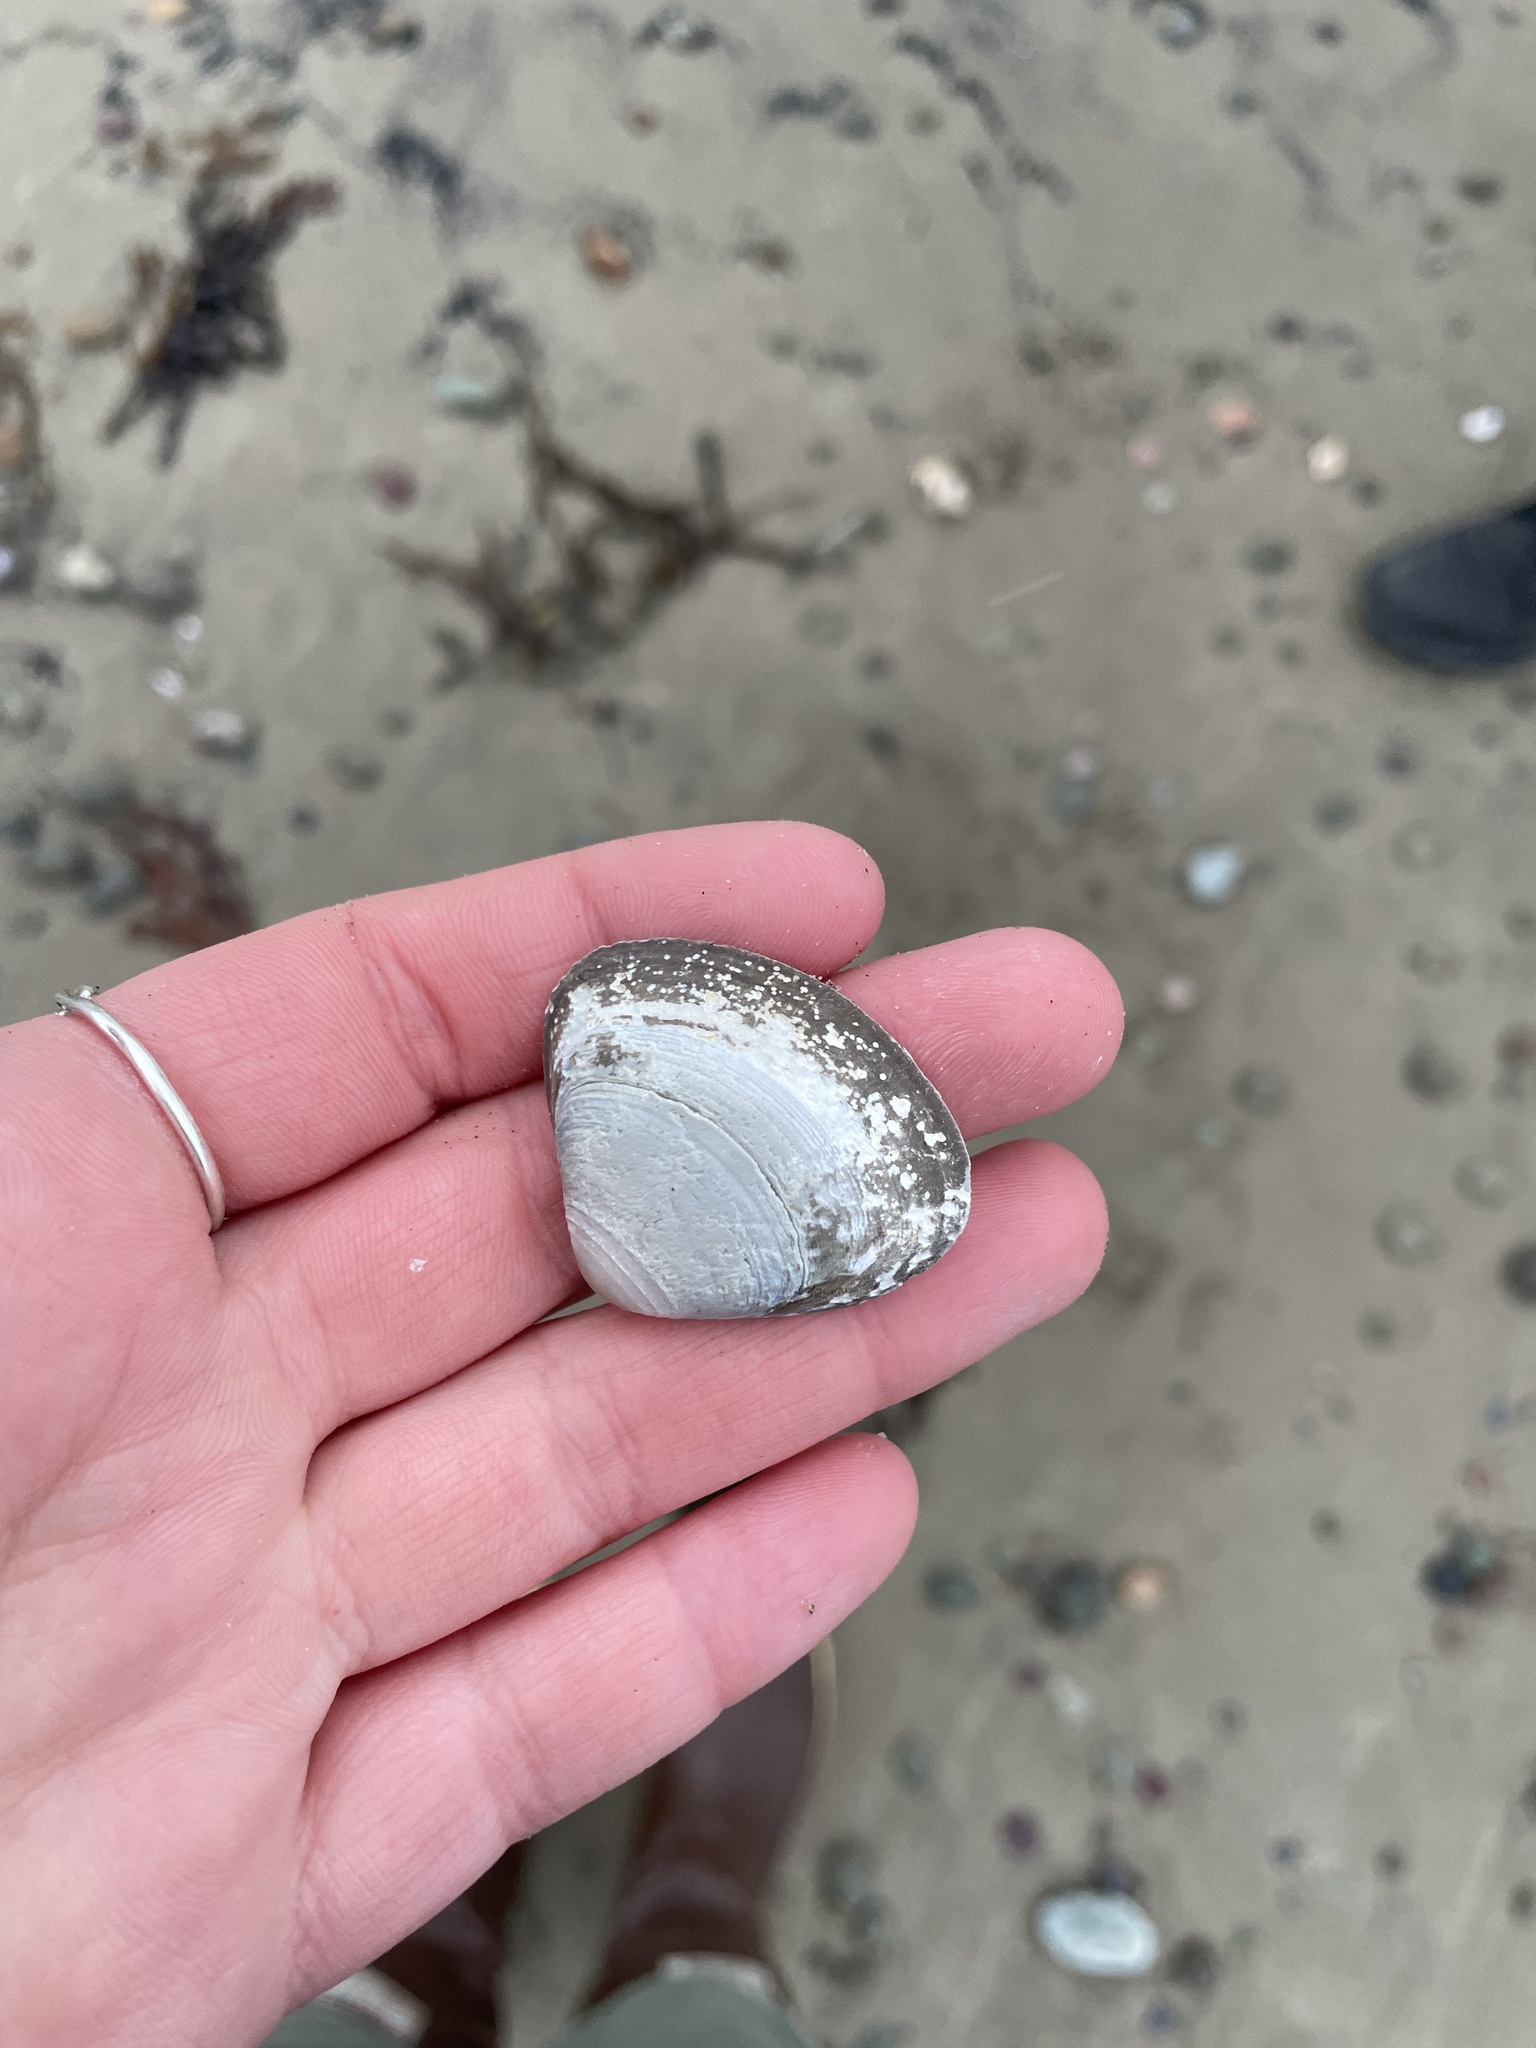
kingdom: Animalia
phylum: Mollusca
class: Bivalvia
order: Venerida
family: Mactridae
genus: Spisula
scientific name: Spisula solidissima
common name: Atlantic surf clam
